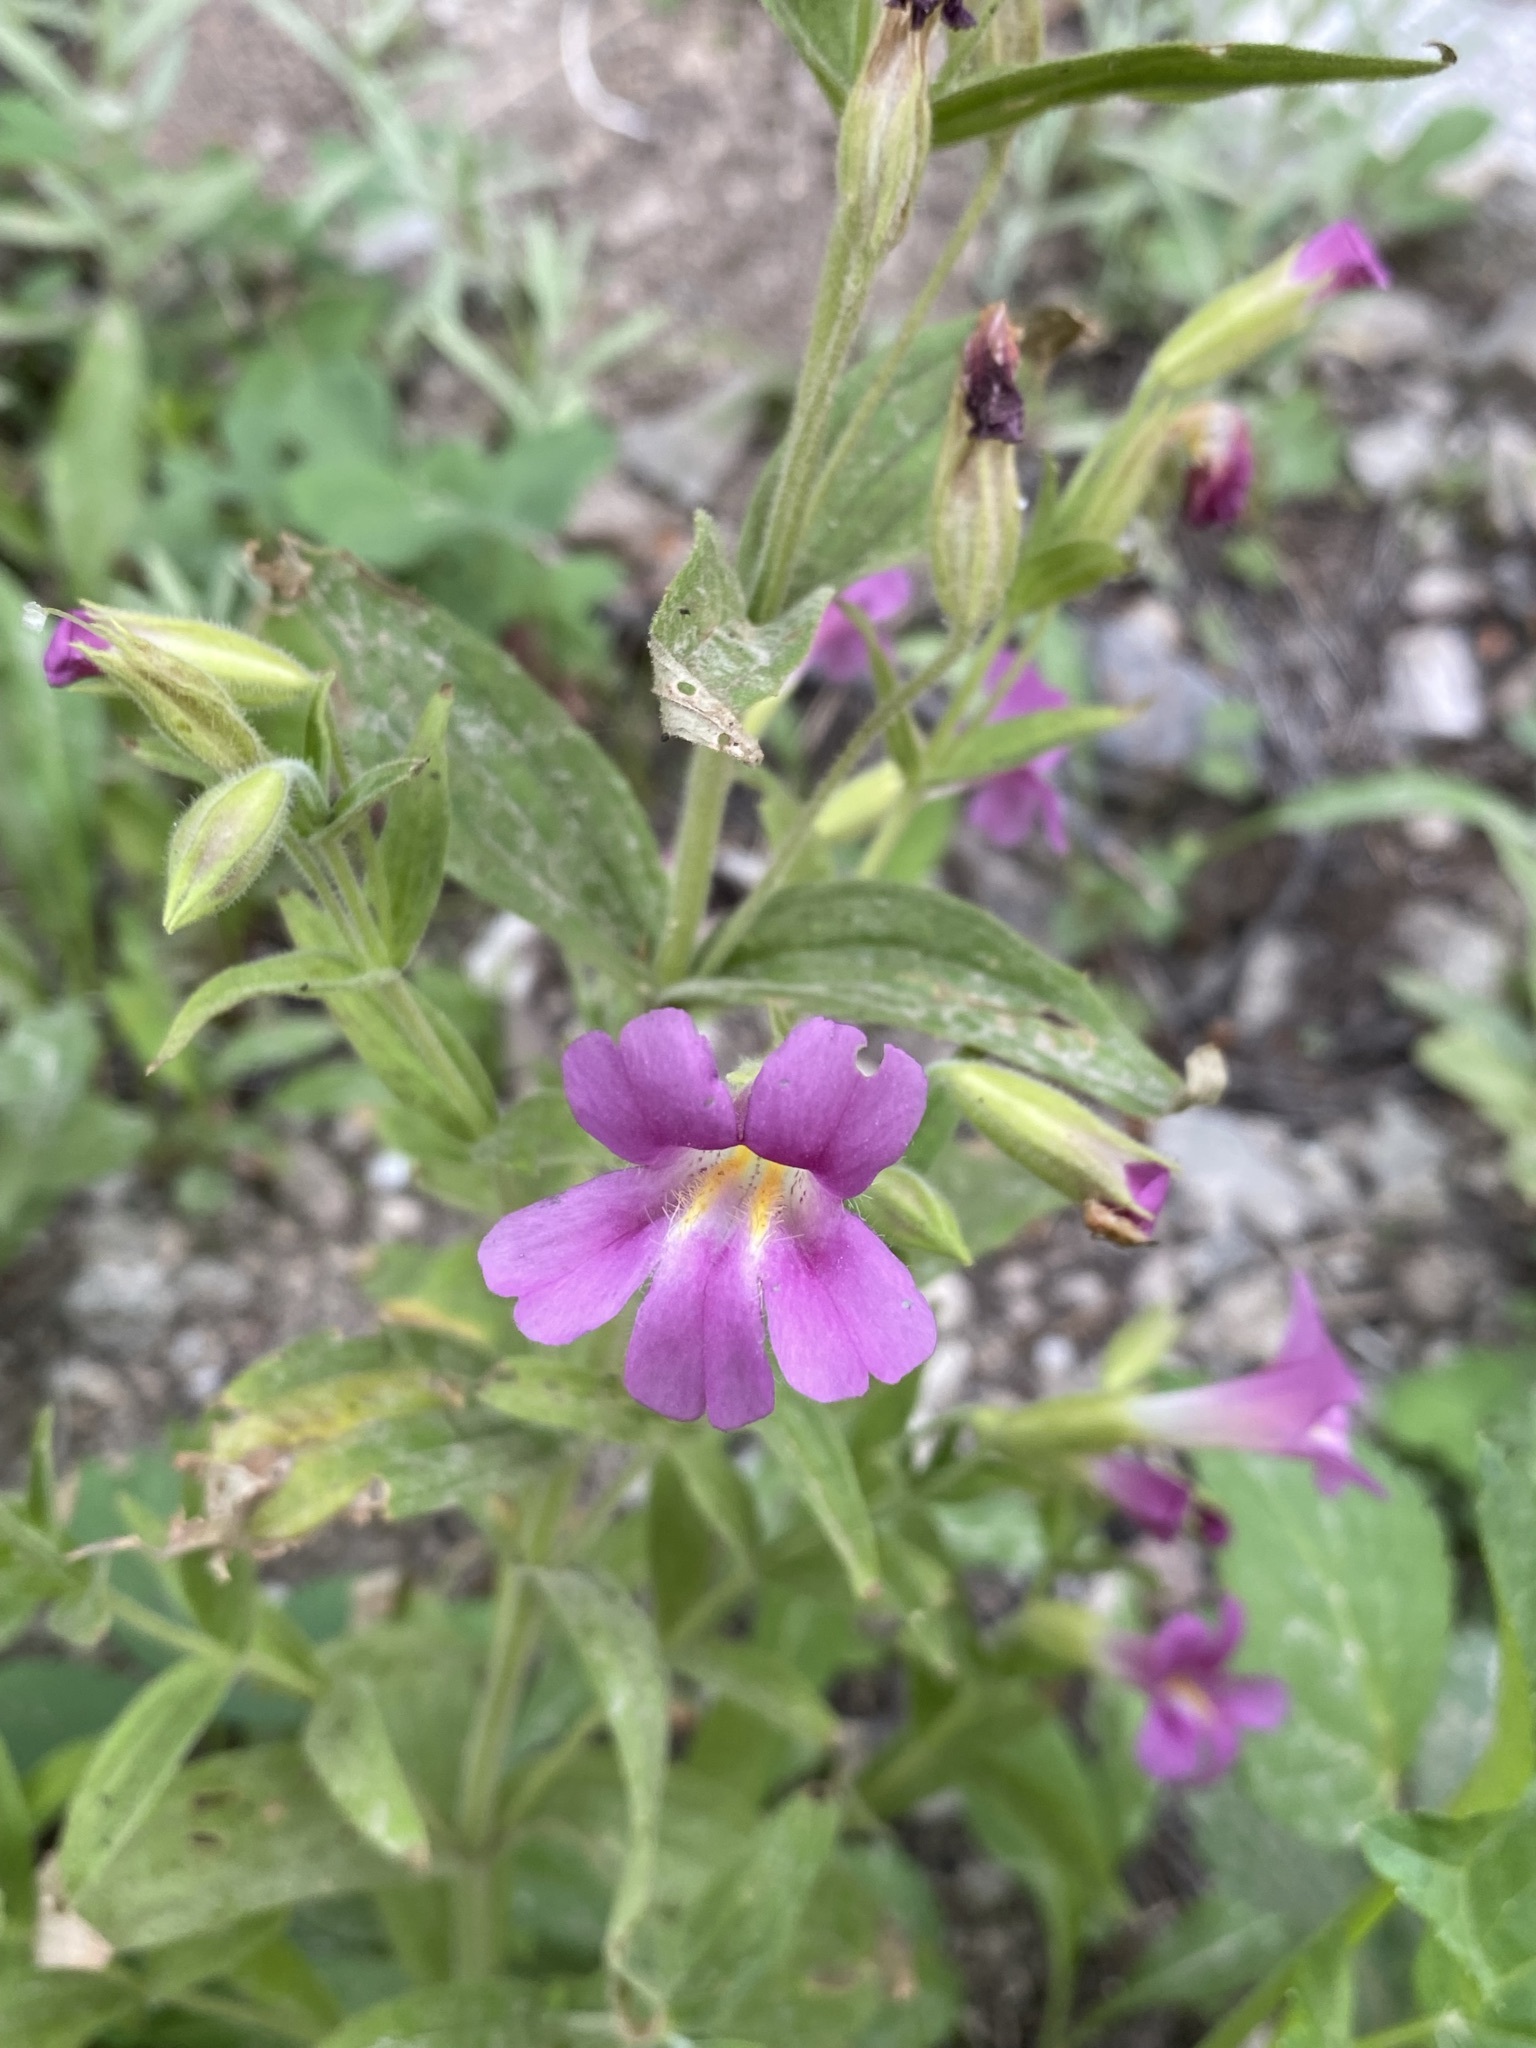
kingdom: Plantae
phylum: Tracheophyta
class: Magnoliopsida
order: Lamiales
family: Phrymaceae
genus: Erythranthe
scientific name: Erythranthe lewisii
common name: Lewis's monkey-flower
